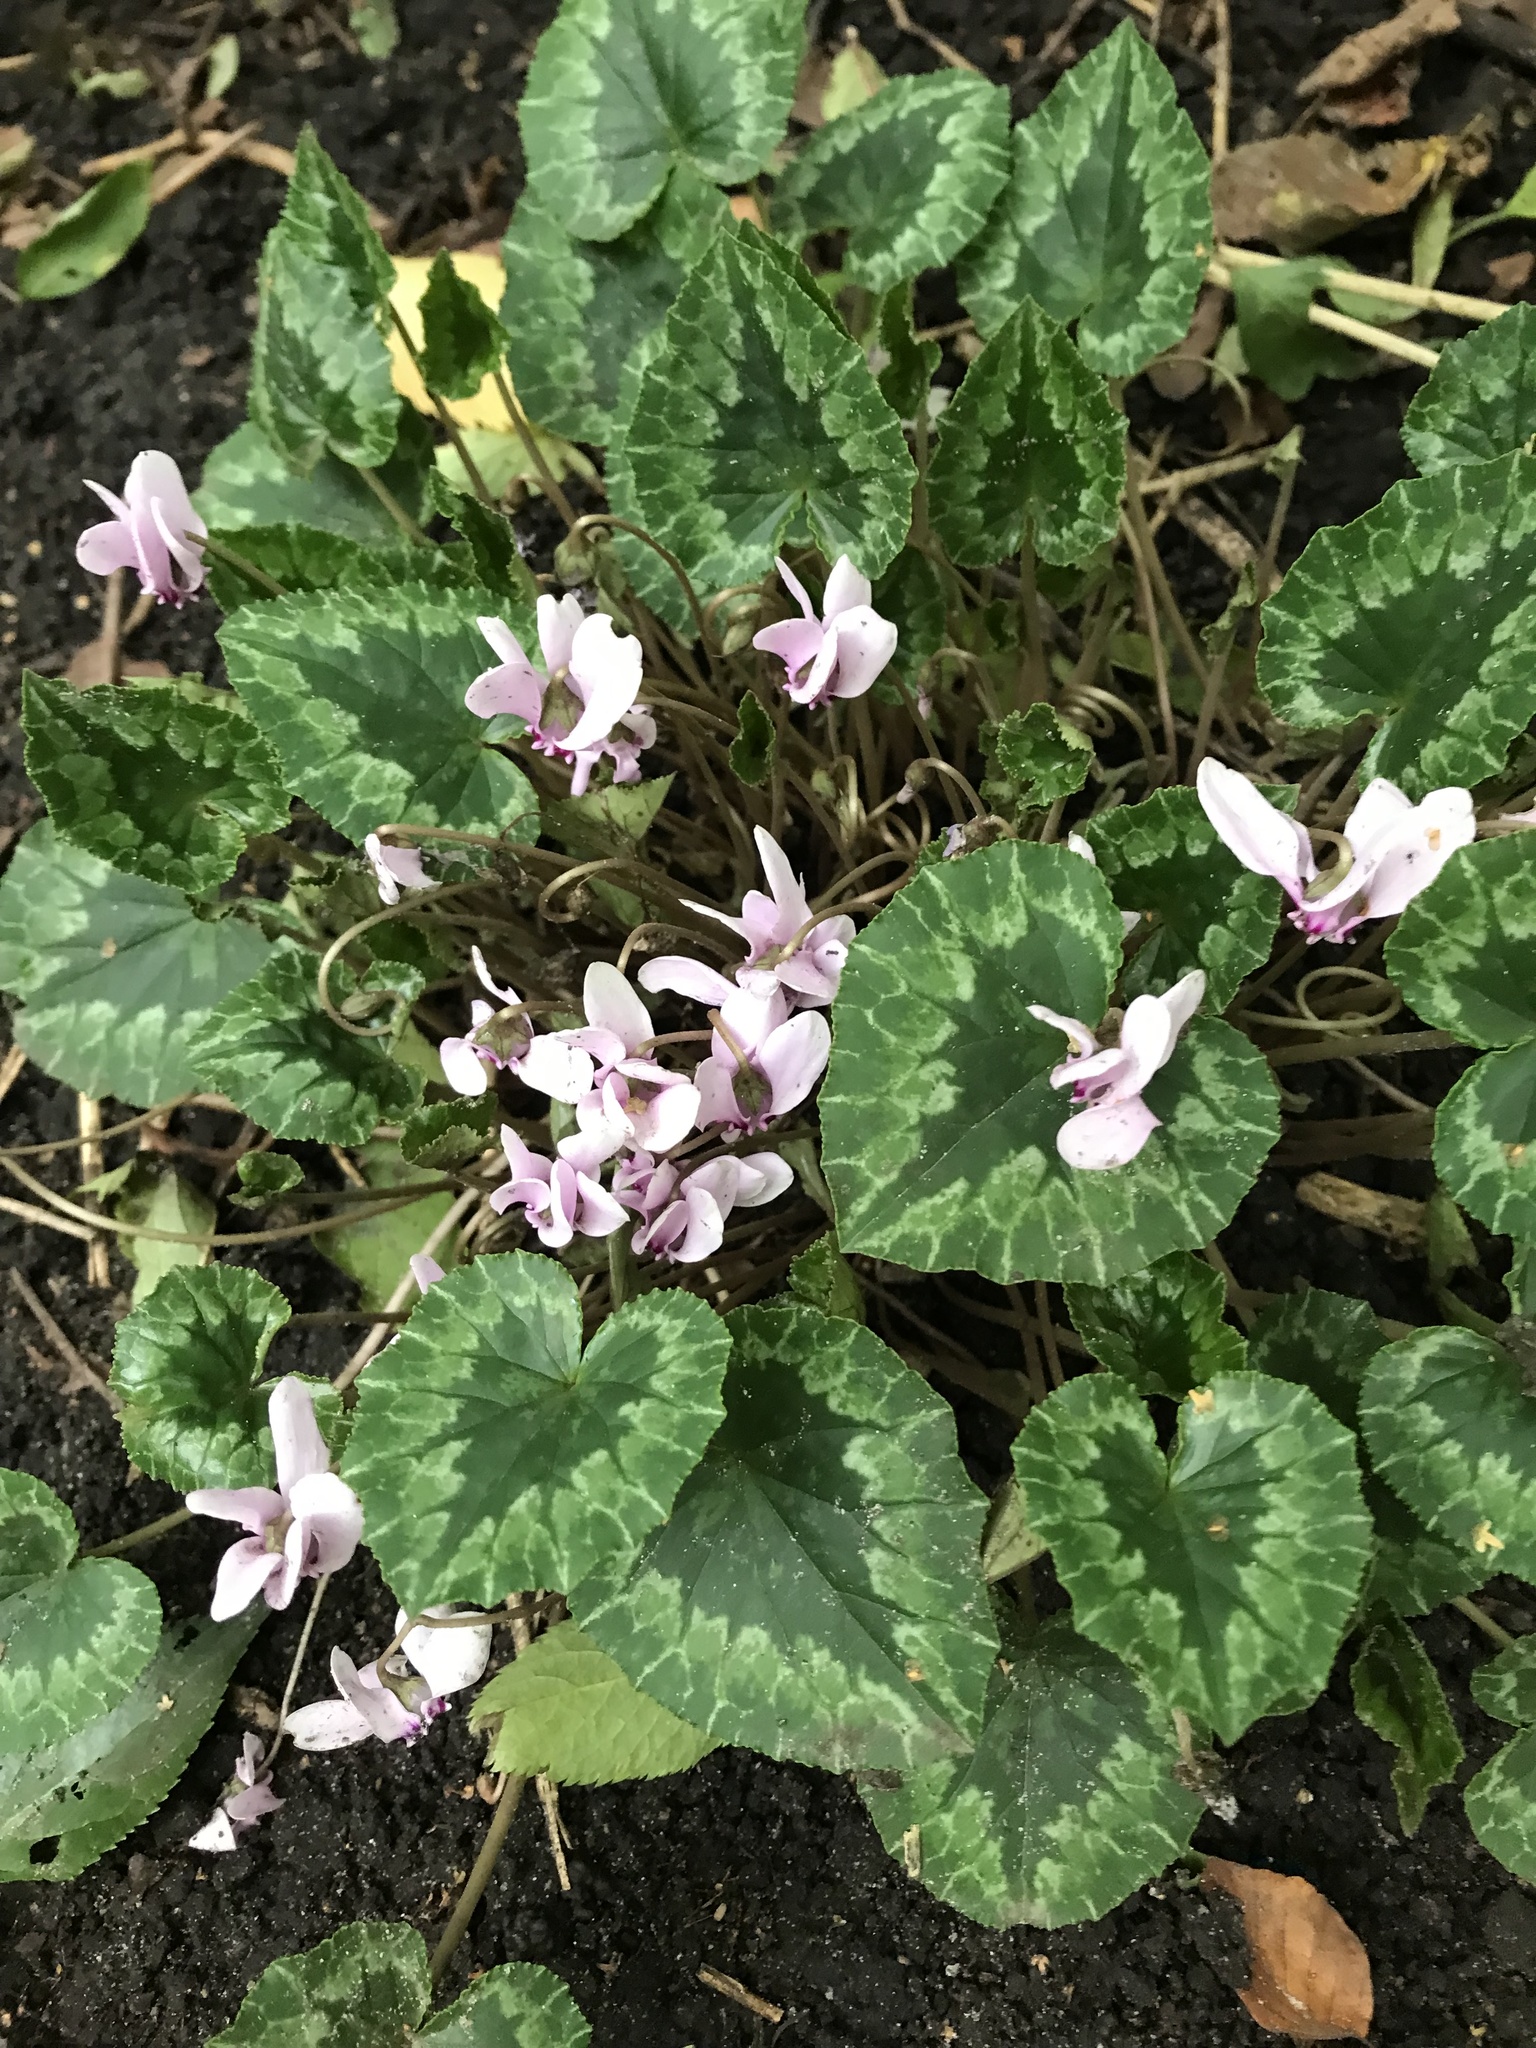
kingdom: Plantae
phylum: Tracheophyta
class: Magnoliopsida
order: Ericales
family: Primulaceae
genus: Cyclamen
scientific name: Cyclamen hederifolium
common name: Sowbread
